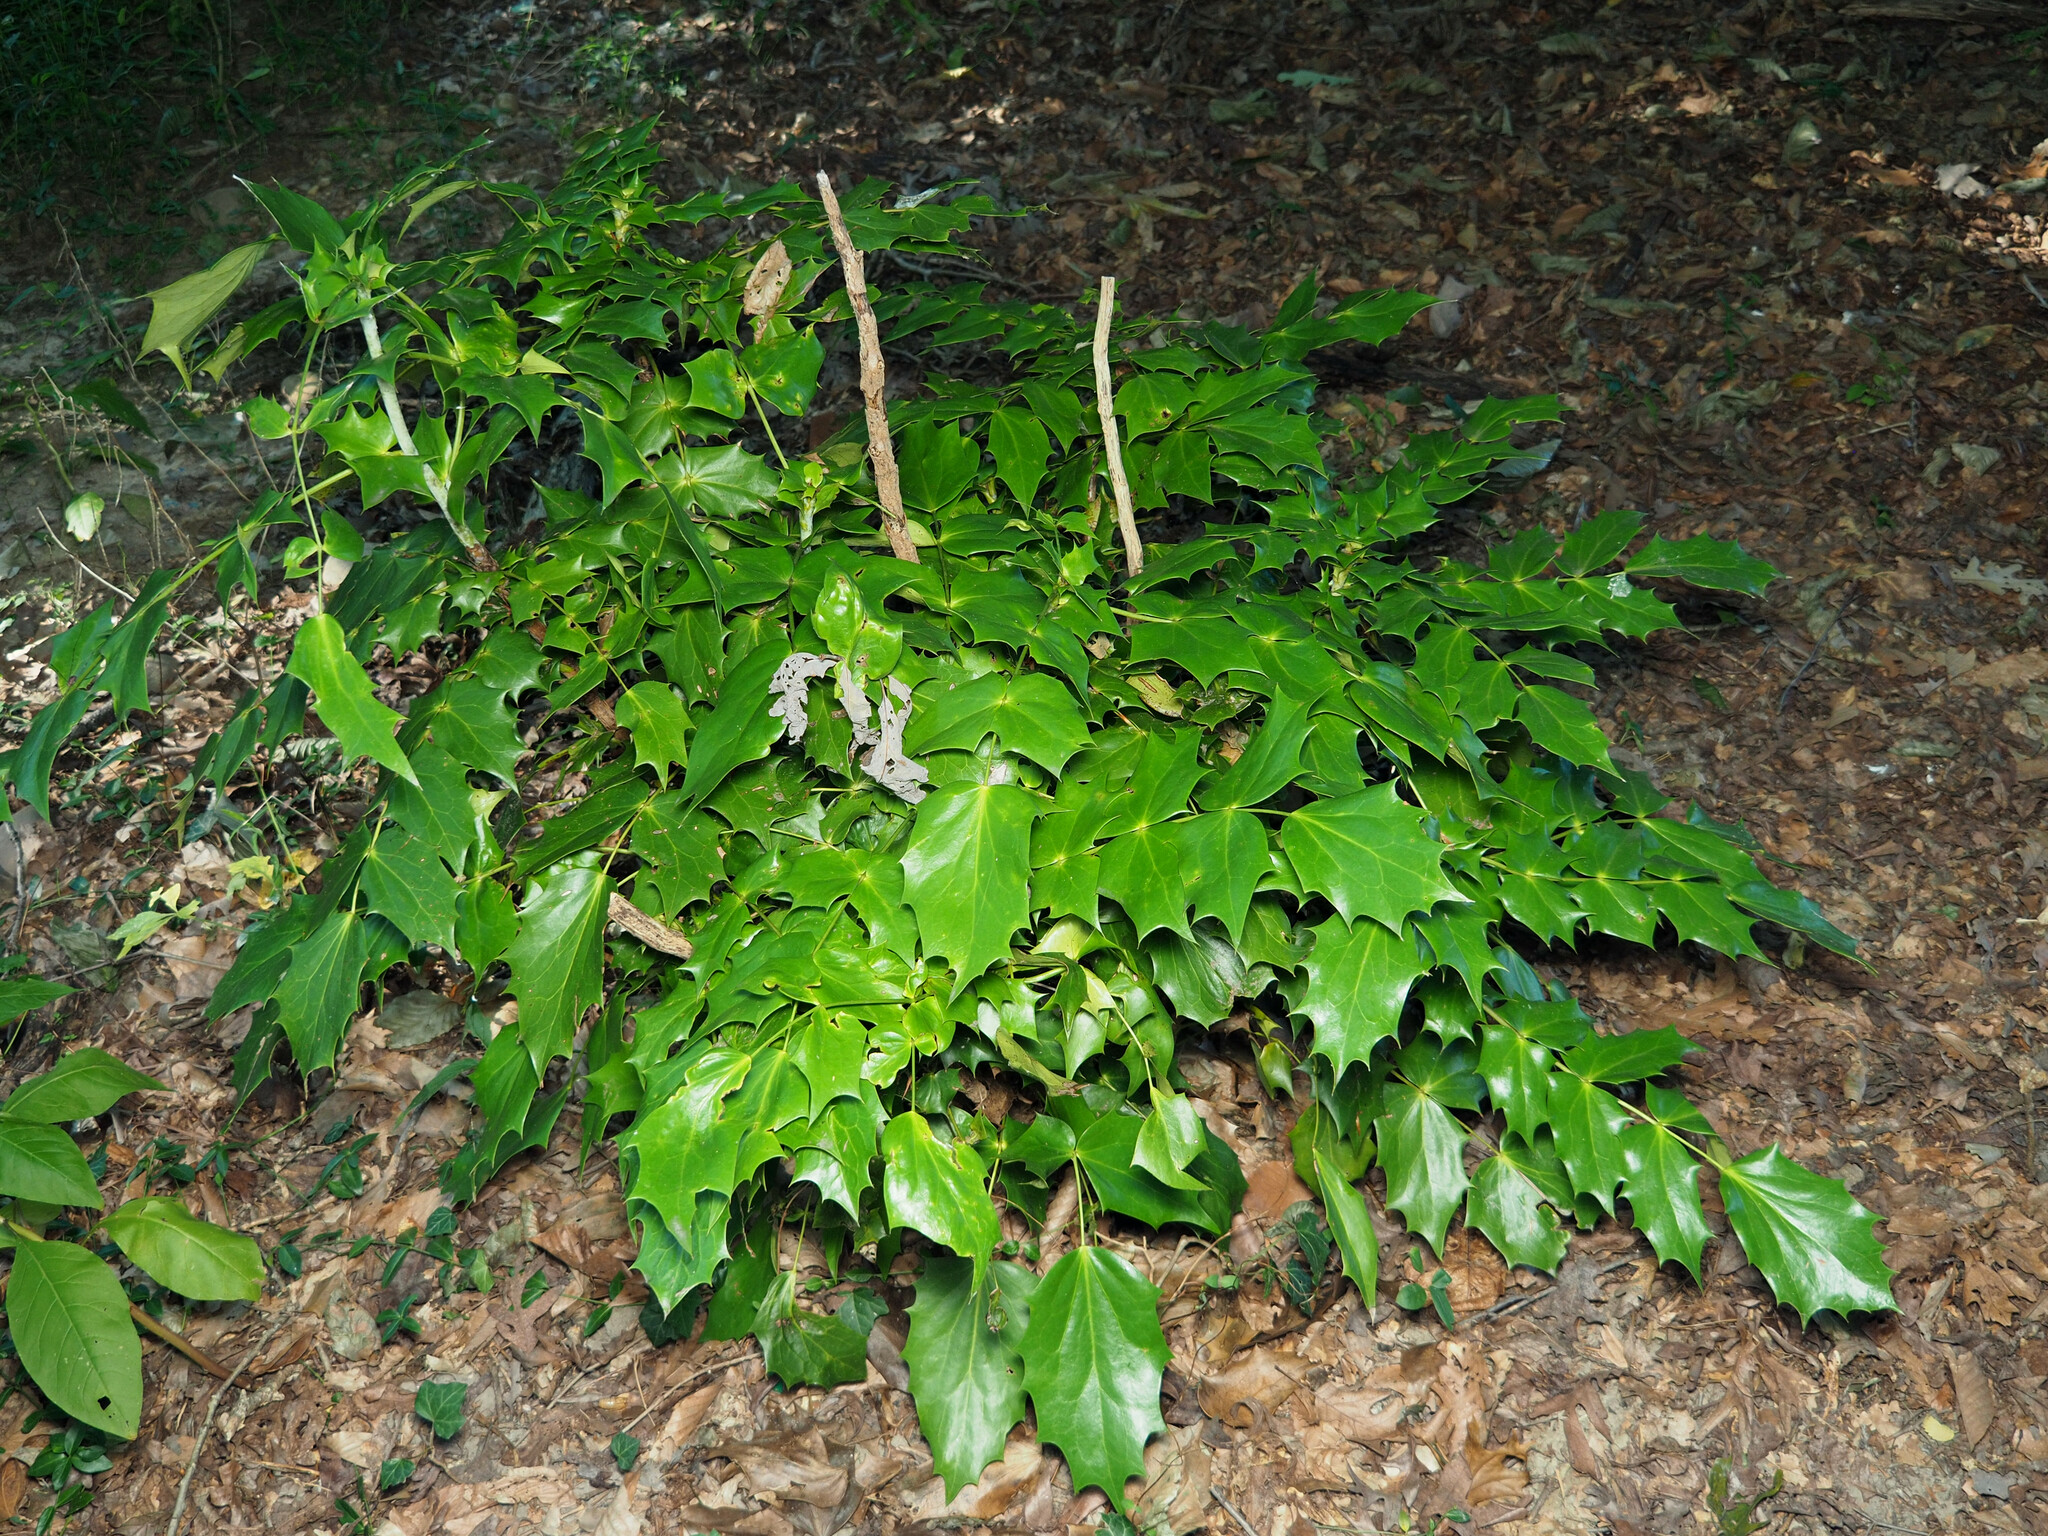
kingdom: Plantae
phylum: Tracheophyta
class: Magnoliopsida
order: Ranunculales
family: Berberidaceae
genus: Mahonia
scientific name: Mahonia bealei
